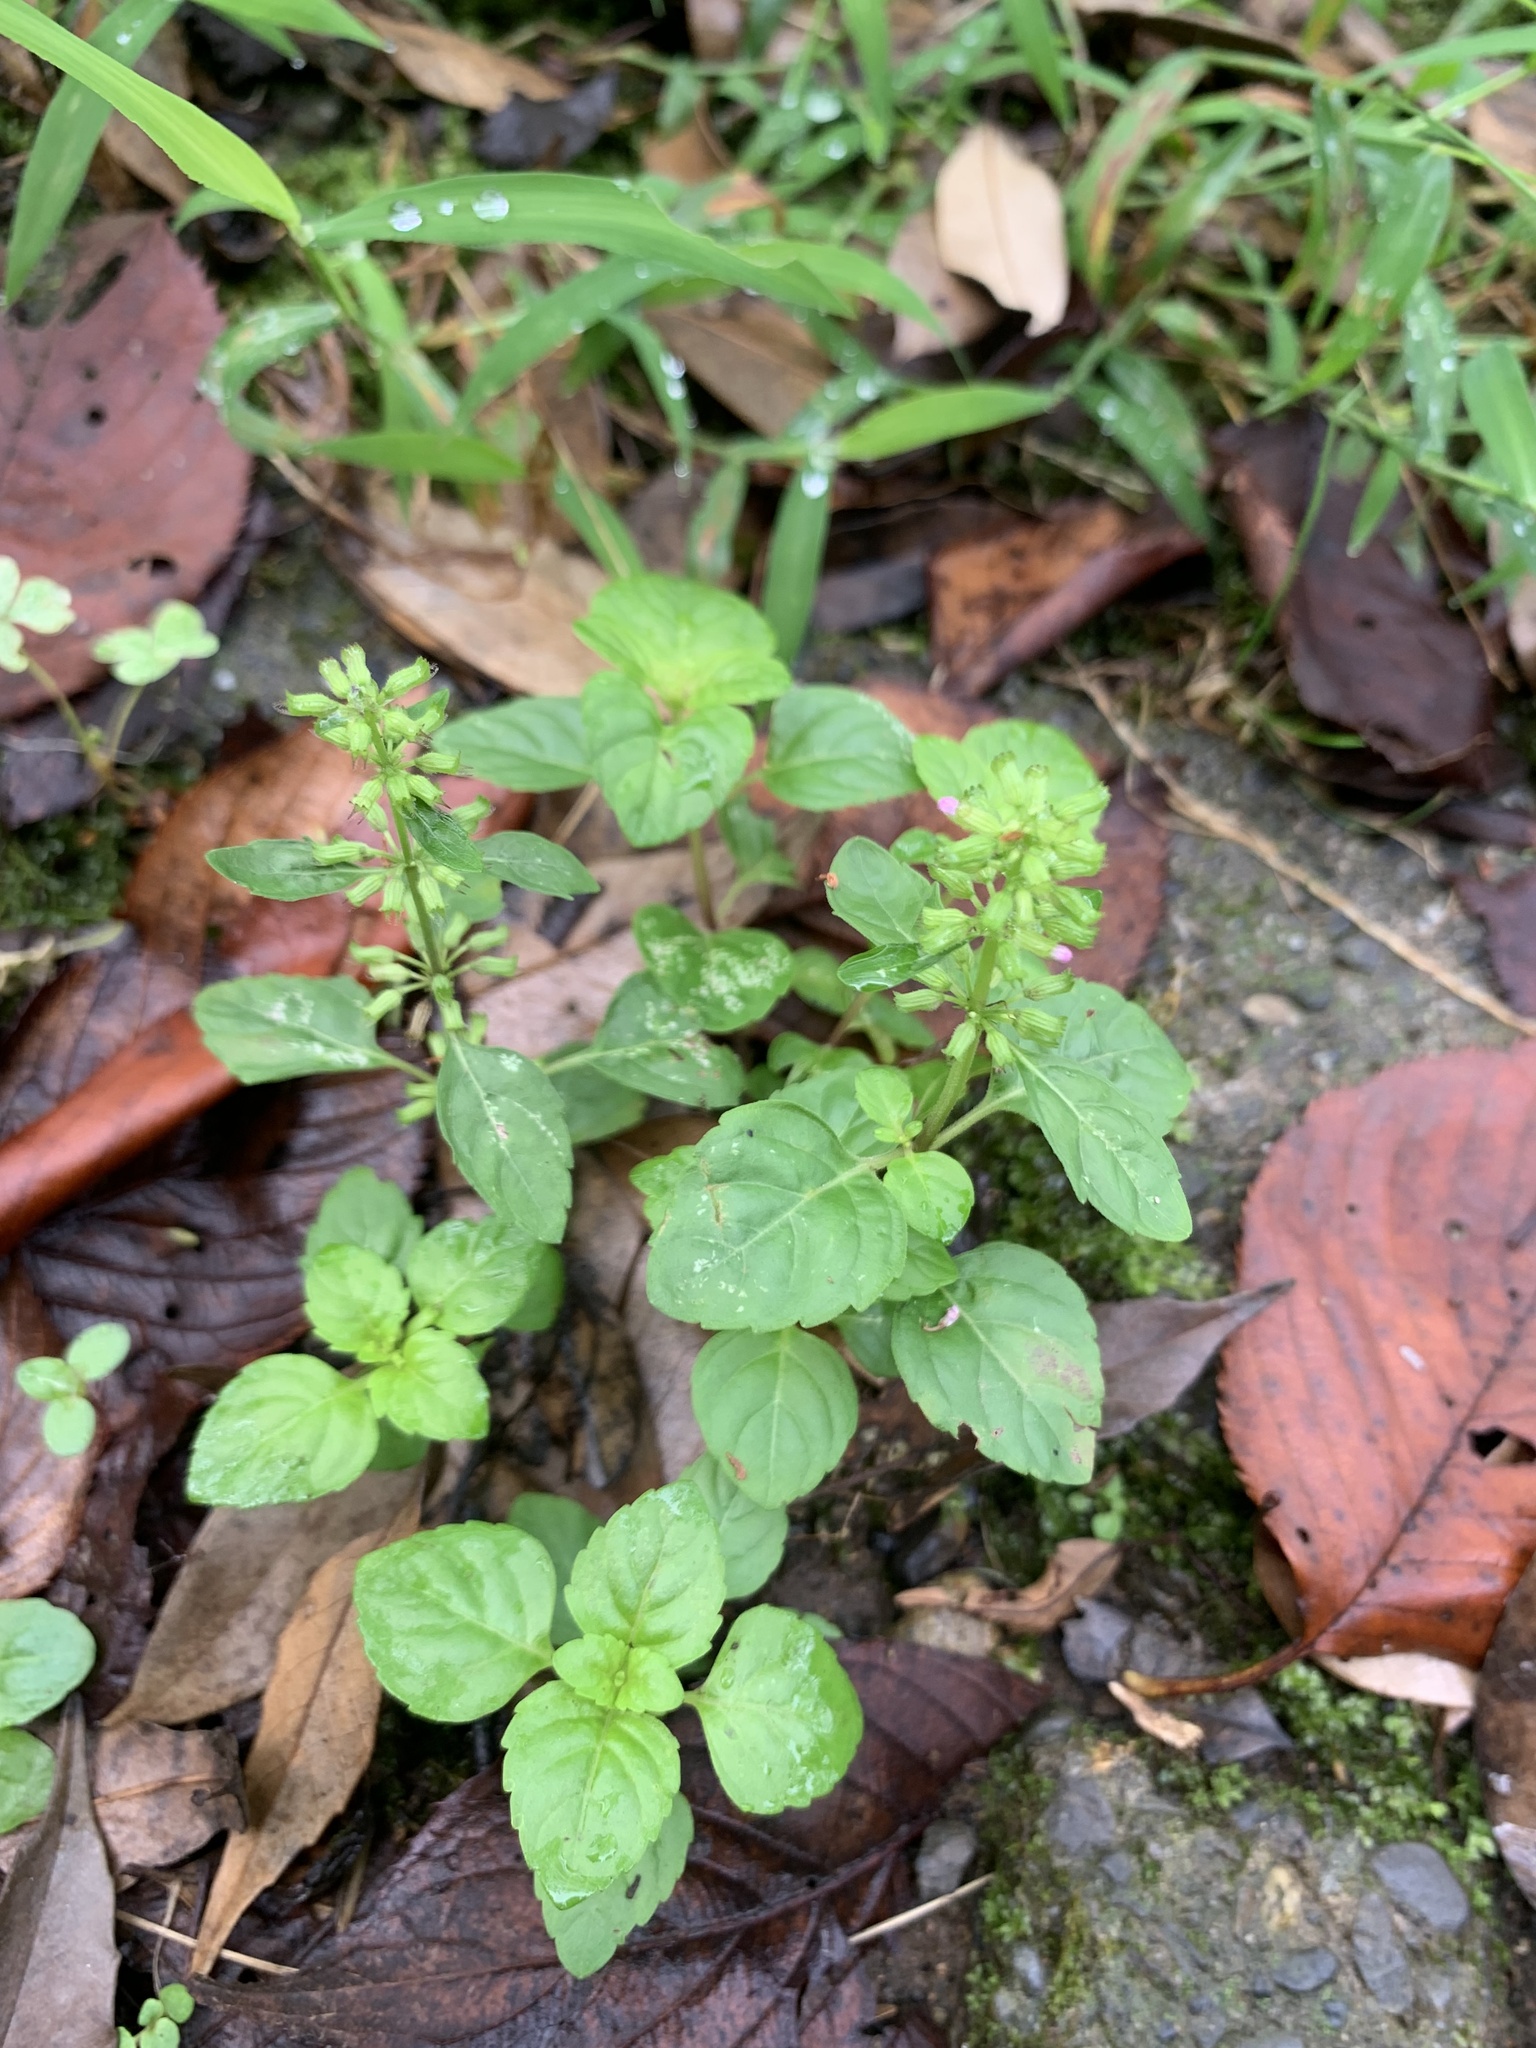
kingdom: Plantae
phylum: Tracheophyta
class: Magnoliopsida
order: Lamiales
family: Lamiaceae
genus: Clinopodium
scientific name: Clinopodium gracile
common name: Slender wild basil
